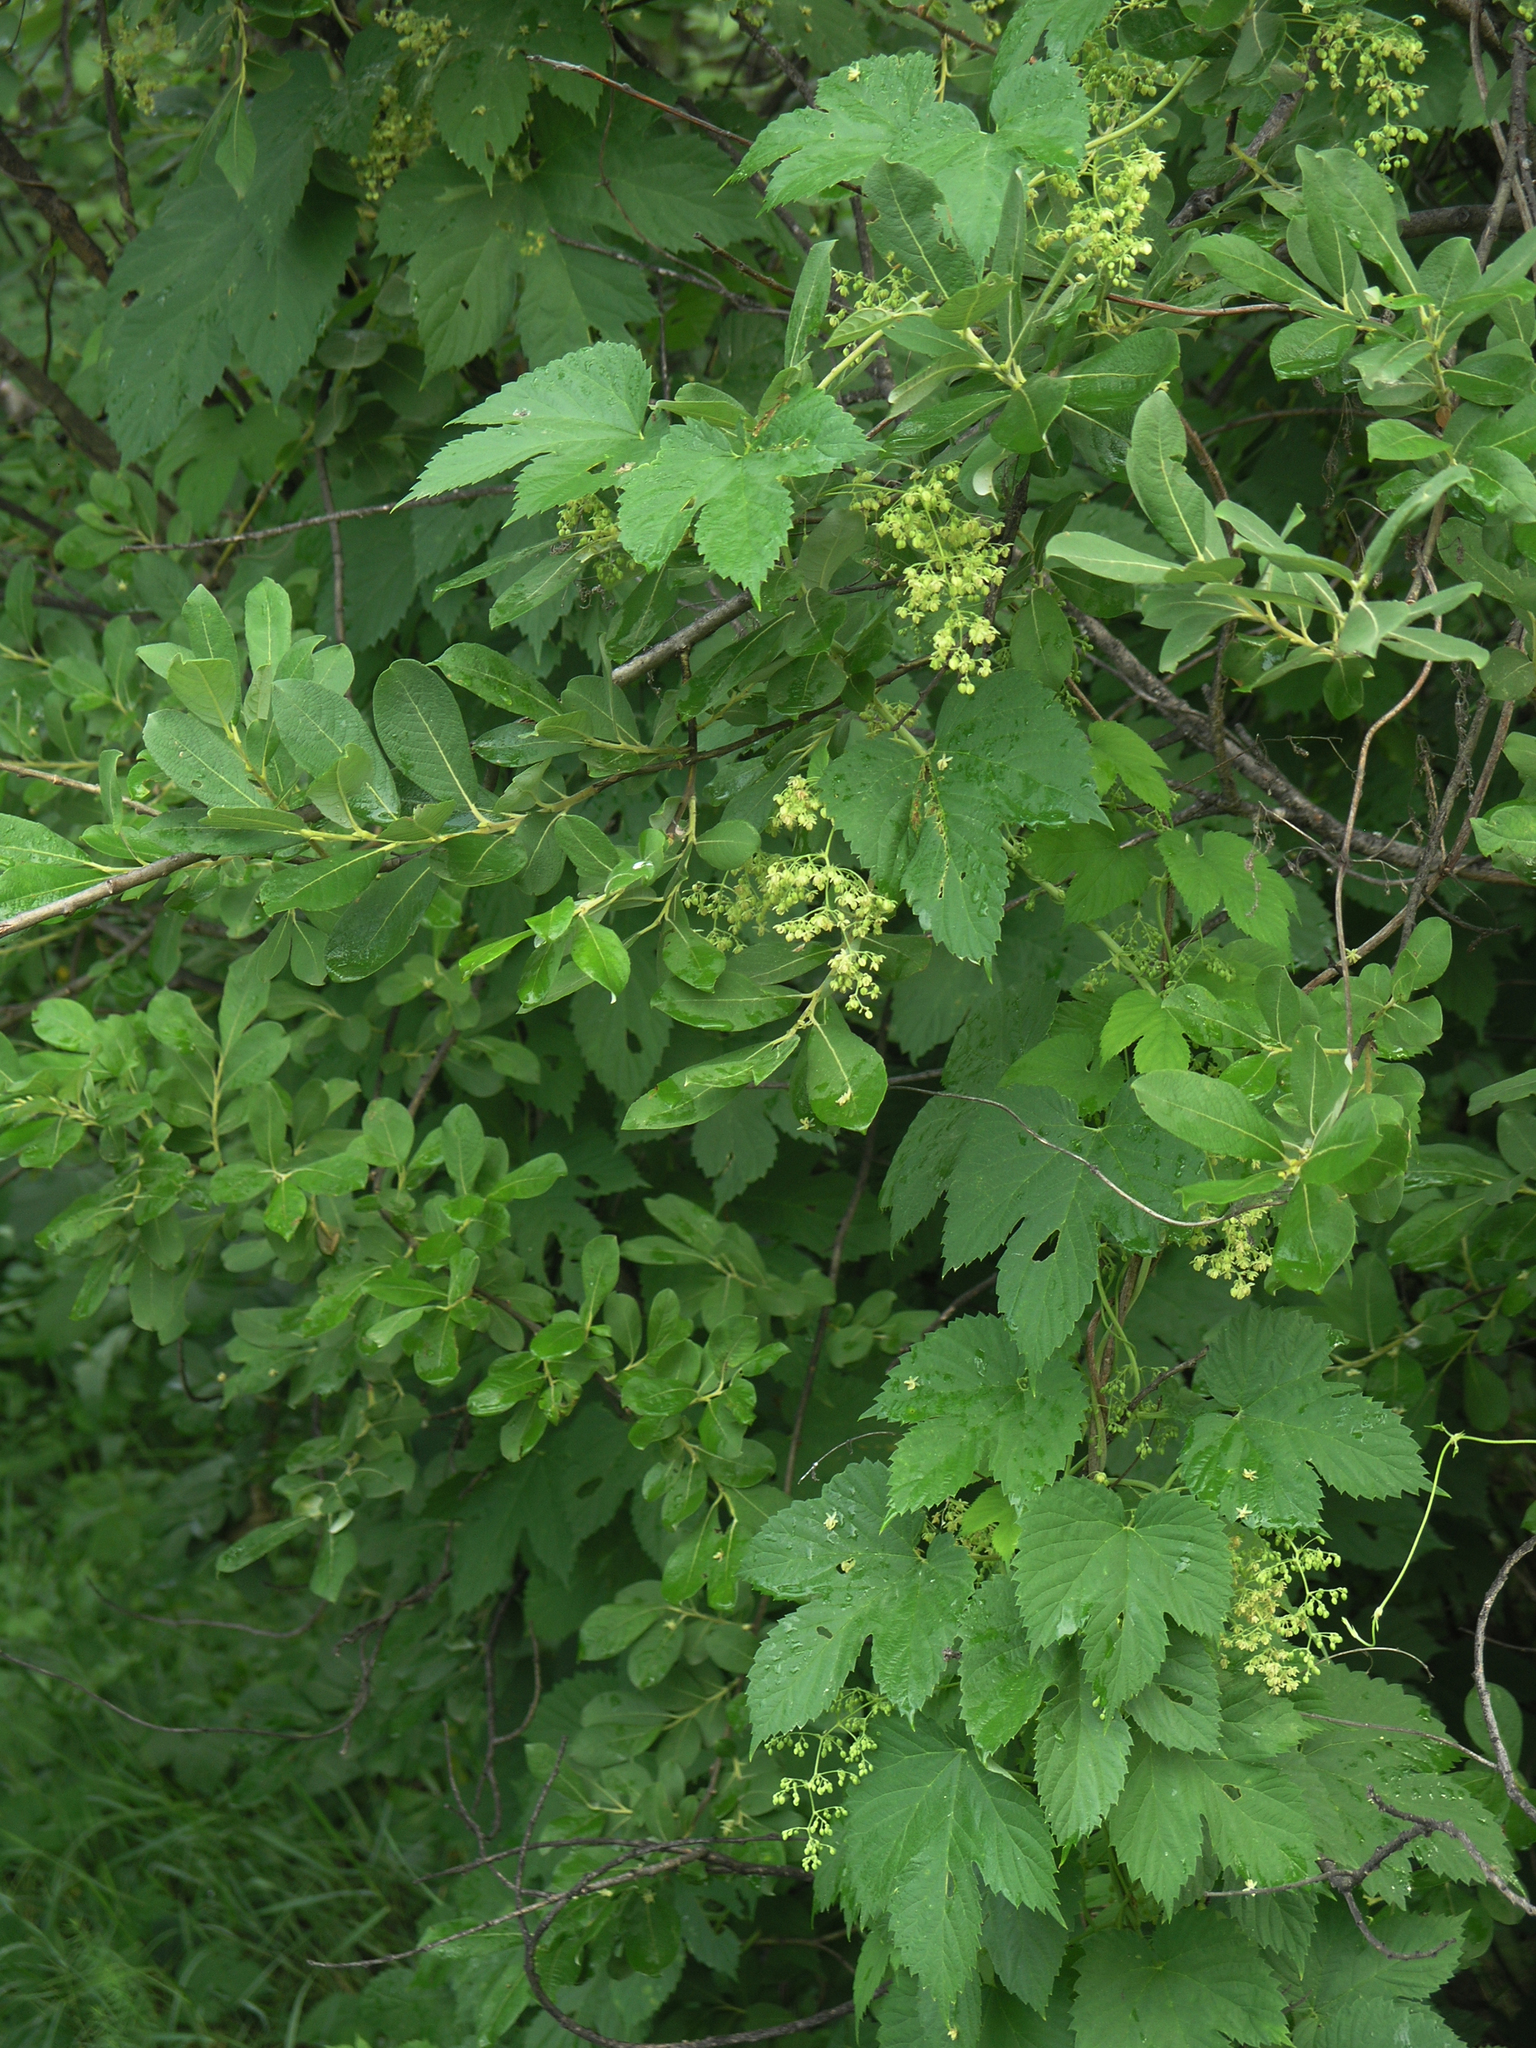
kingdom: Plantae
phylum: Tracheophyta
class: Magnoliopsida
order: Rosales
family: Cannabaceae
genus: Humulus
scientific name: Humulus lupulus
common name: Hop
